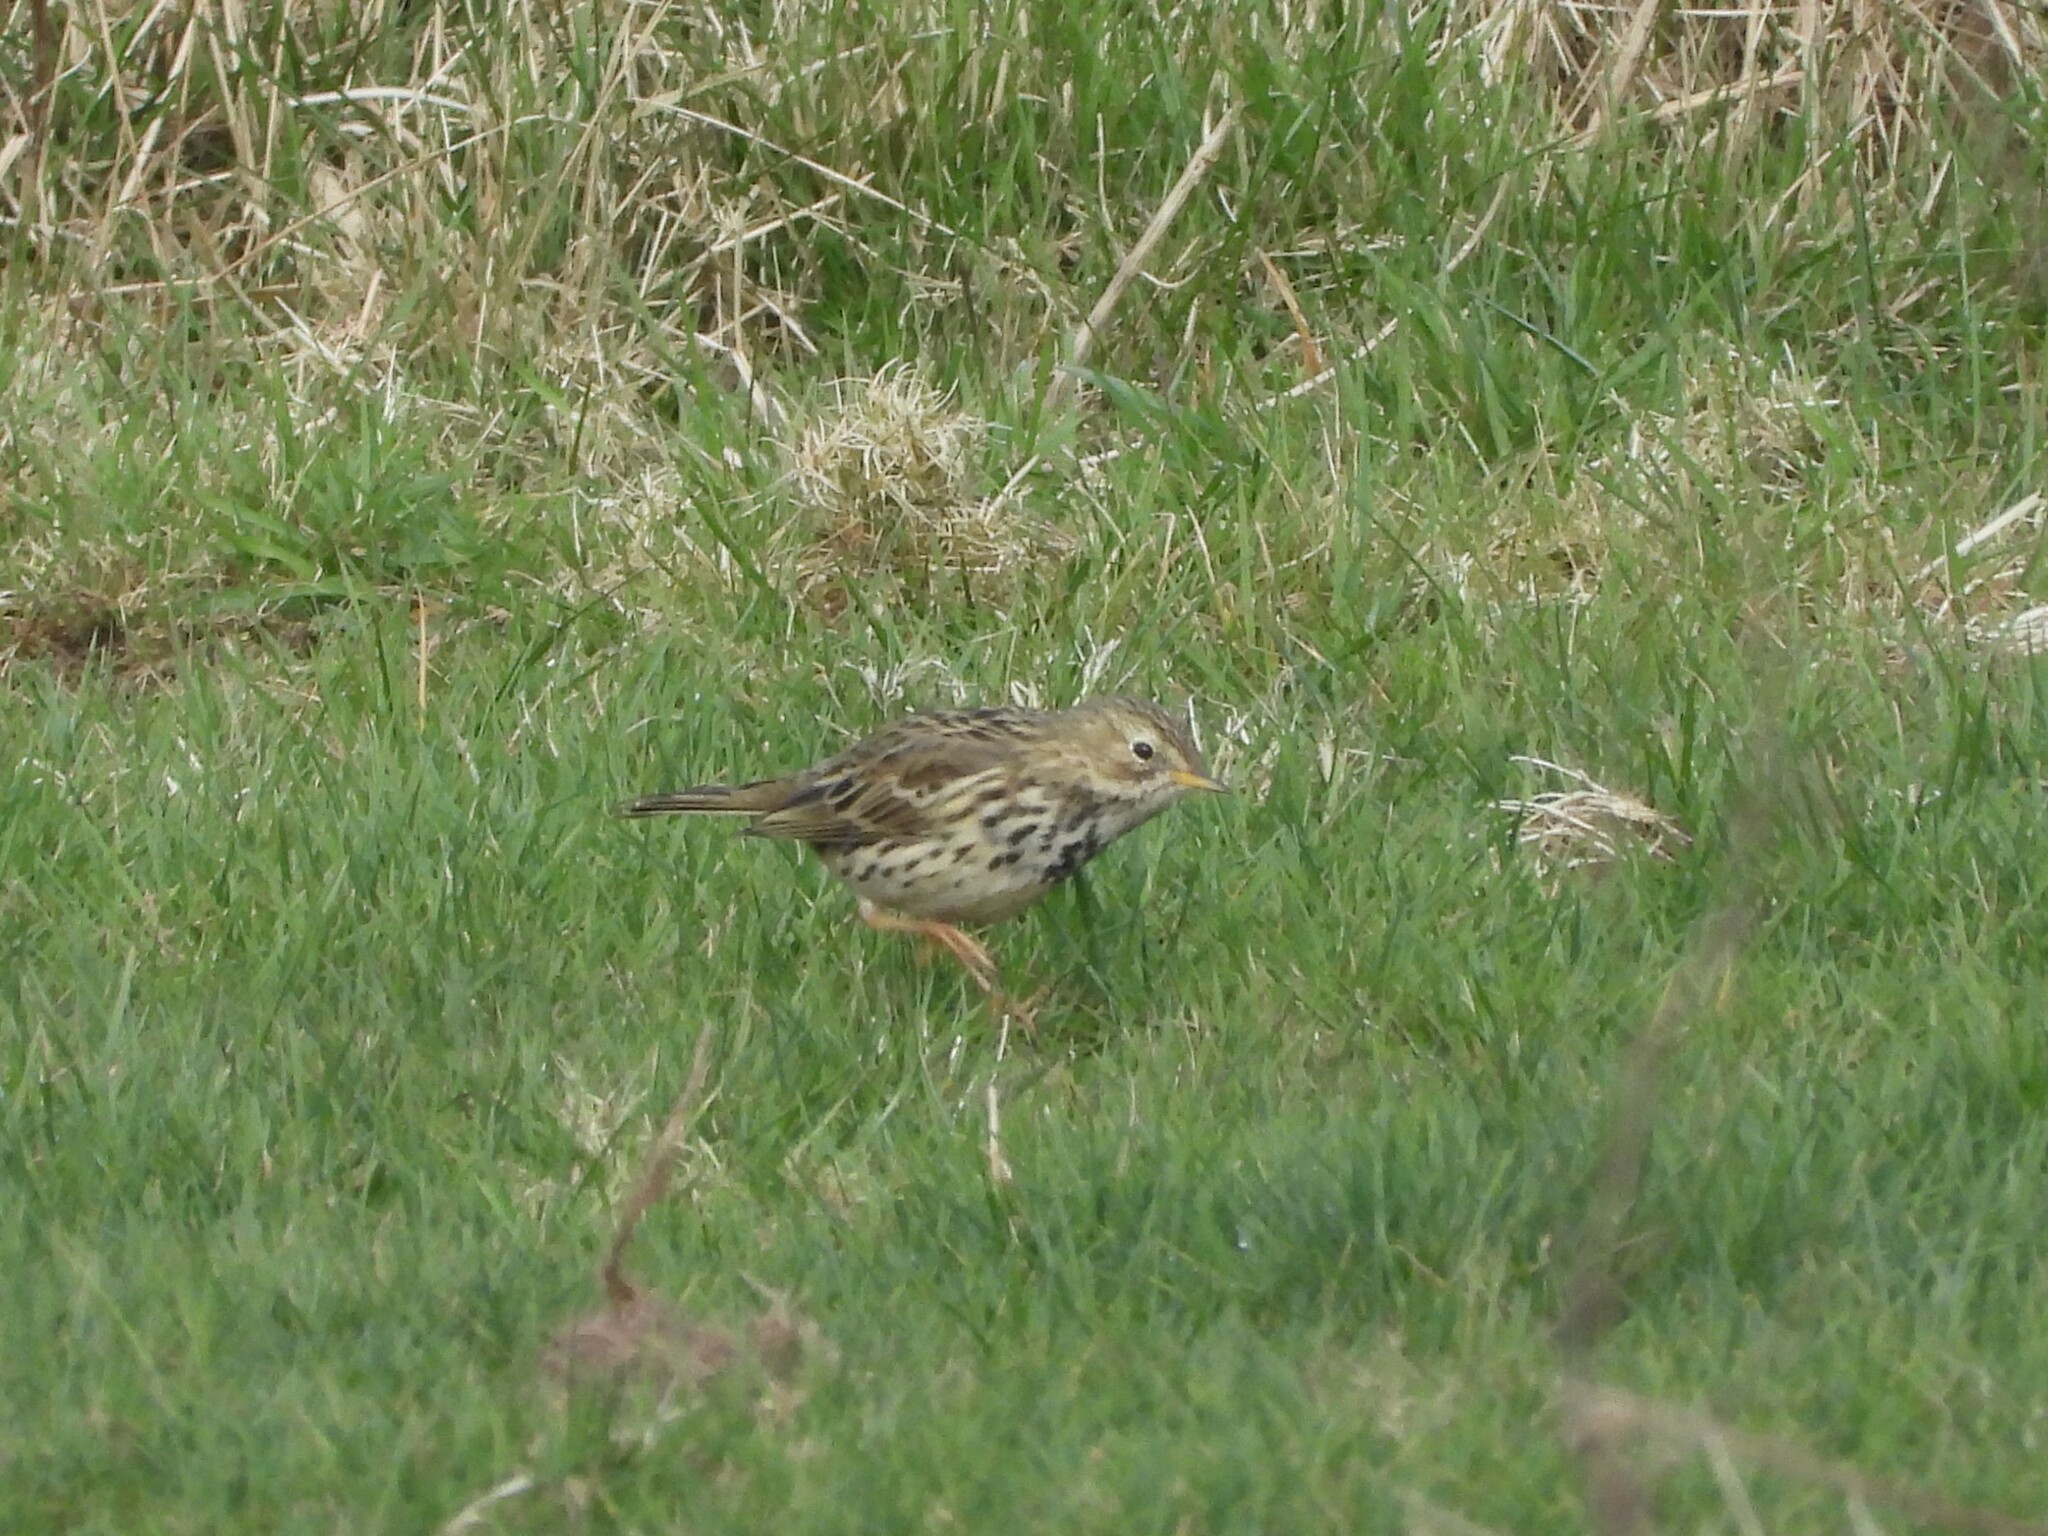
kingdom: Animalia
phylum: Chordata
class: Aves
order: Passeriformes
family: Motacillidae
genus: Anthus
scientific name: Anthus pratensis
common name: Meadow pipit
